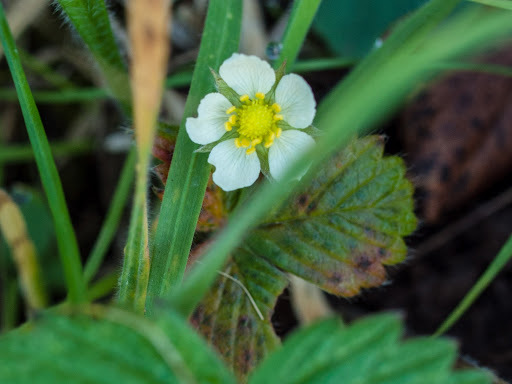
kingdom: Plantae
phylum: Tracheophyta
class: Magnoliopsida
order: Rosales
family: Rosaceae
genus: Fragaria
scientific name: Fragaria vesca
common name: Wild strawberry
